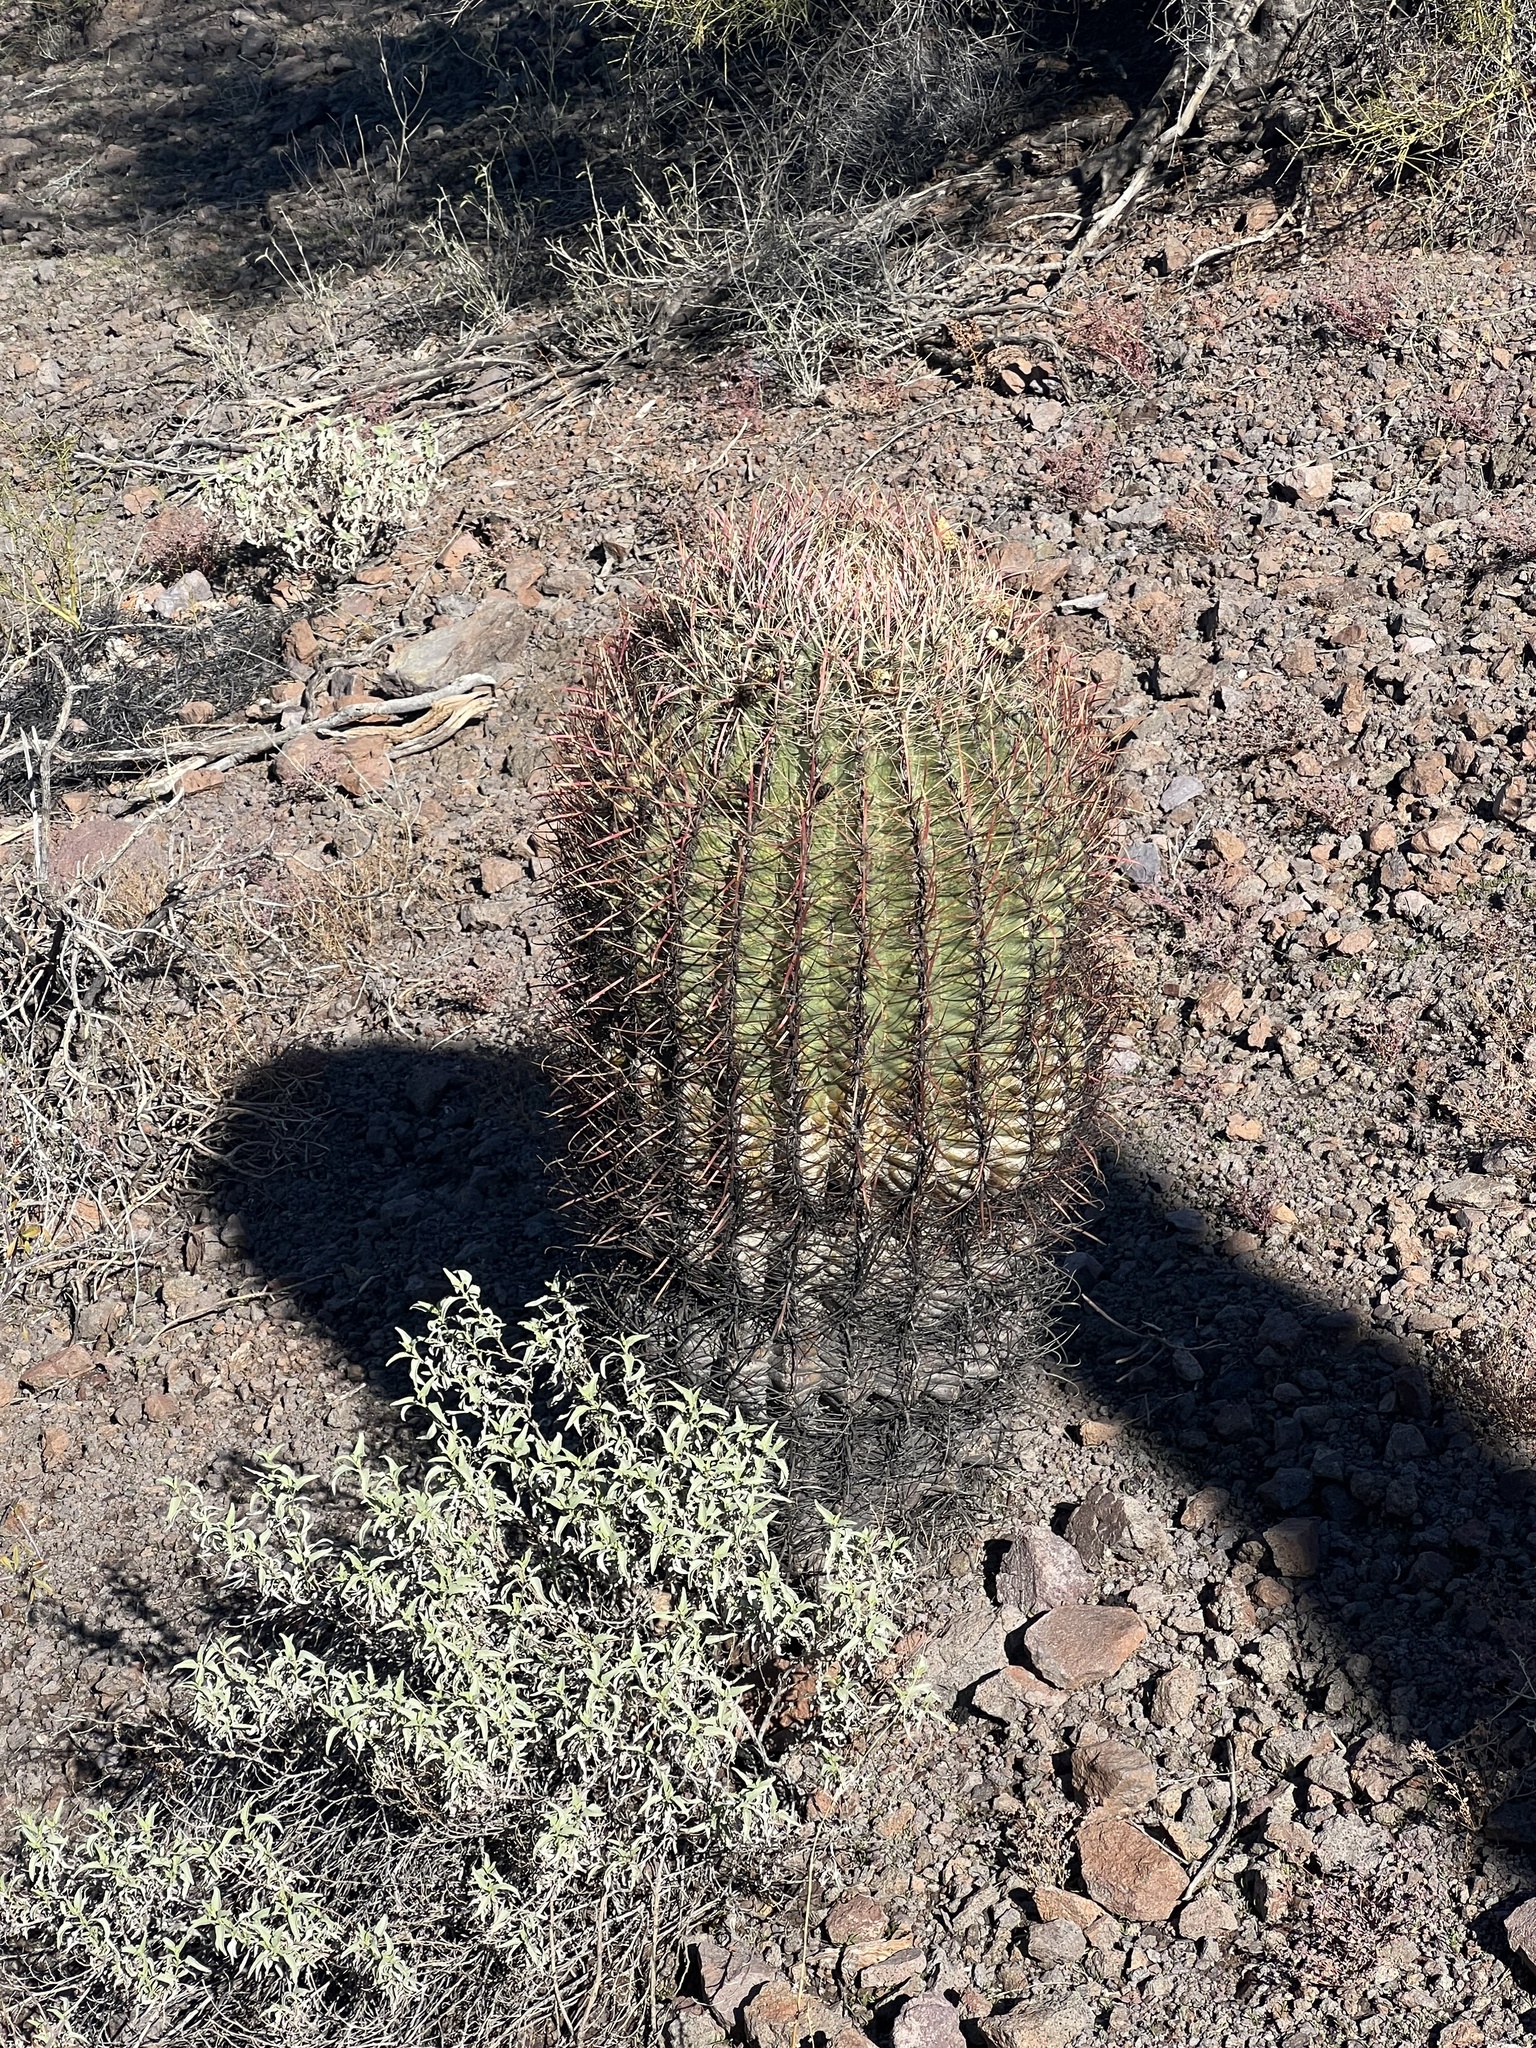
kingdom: Plantae
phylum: Tracheophyta
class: Magnoliopsida
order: Caryophyllales
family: Cactaceae
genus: Ferocactus
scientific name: Ferocactus cylindraceus
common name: California barrel cactus
